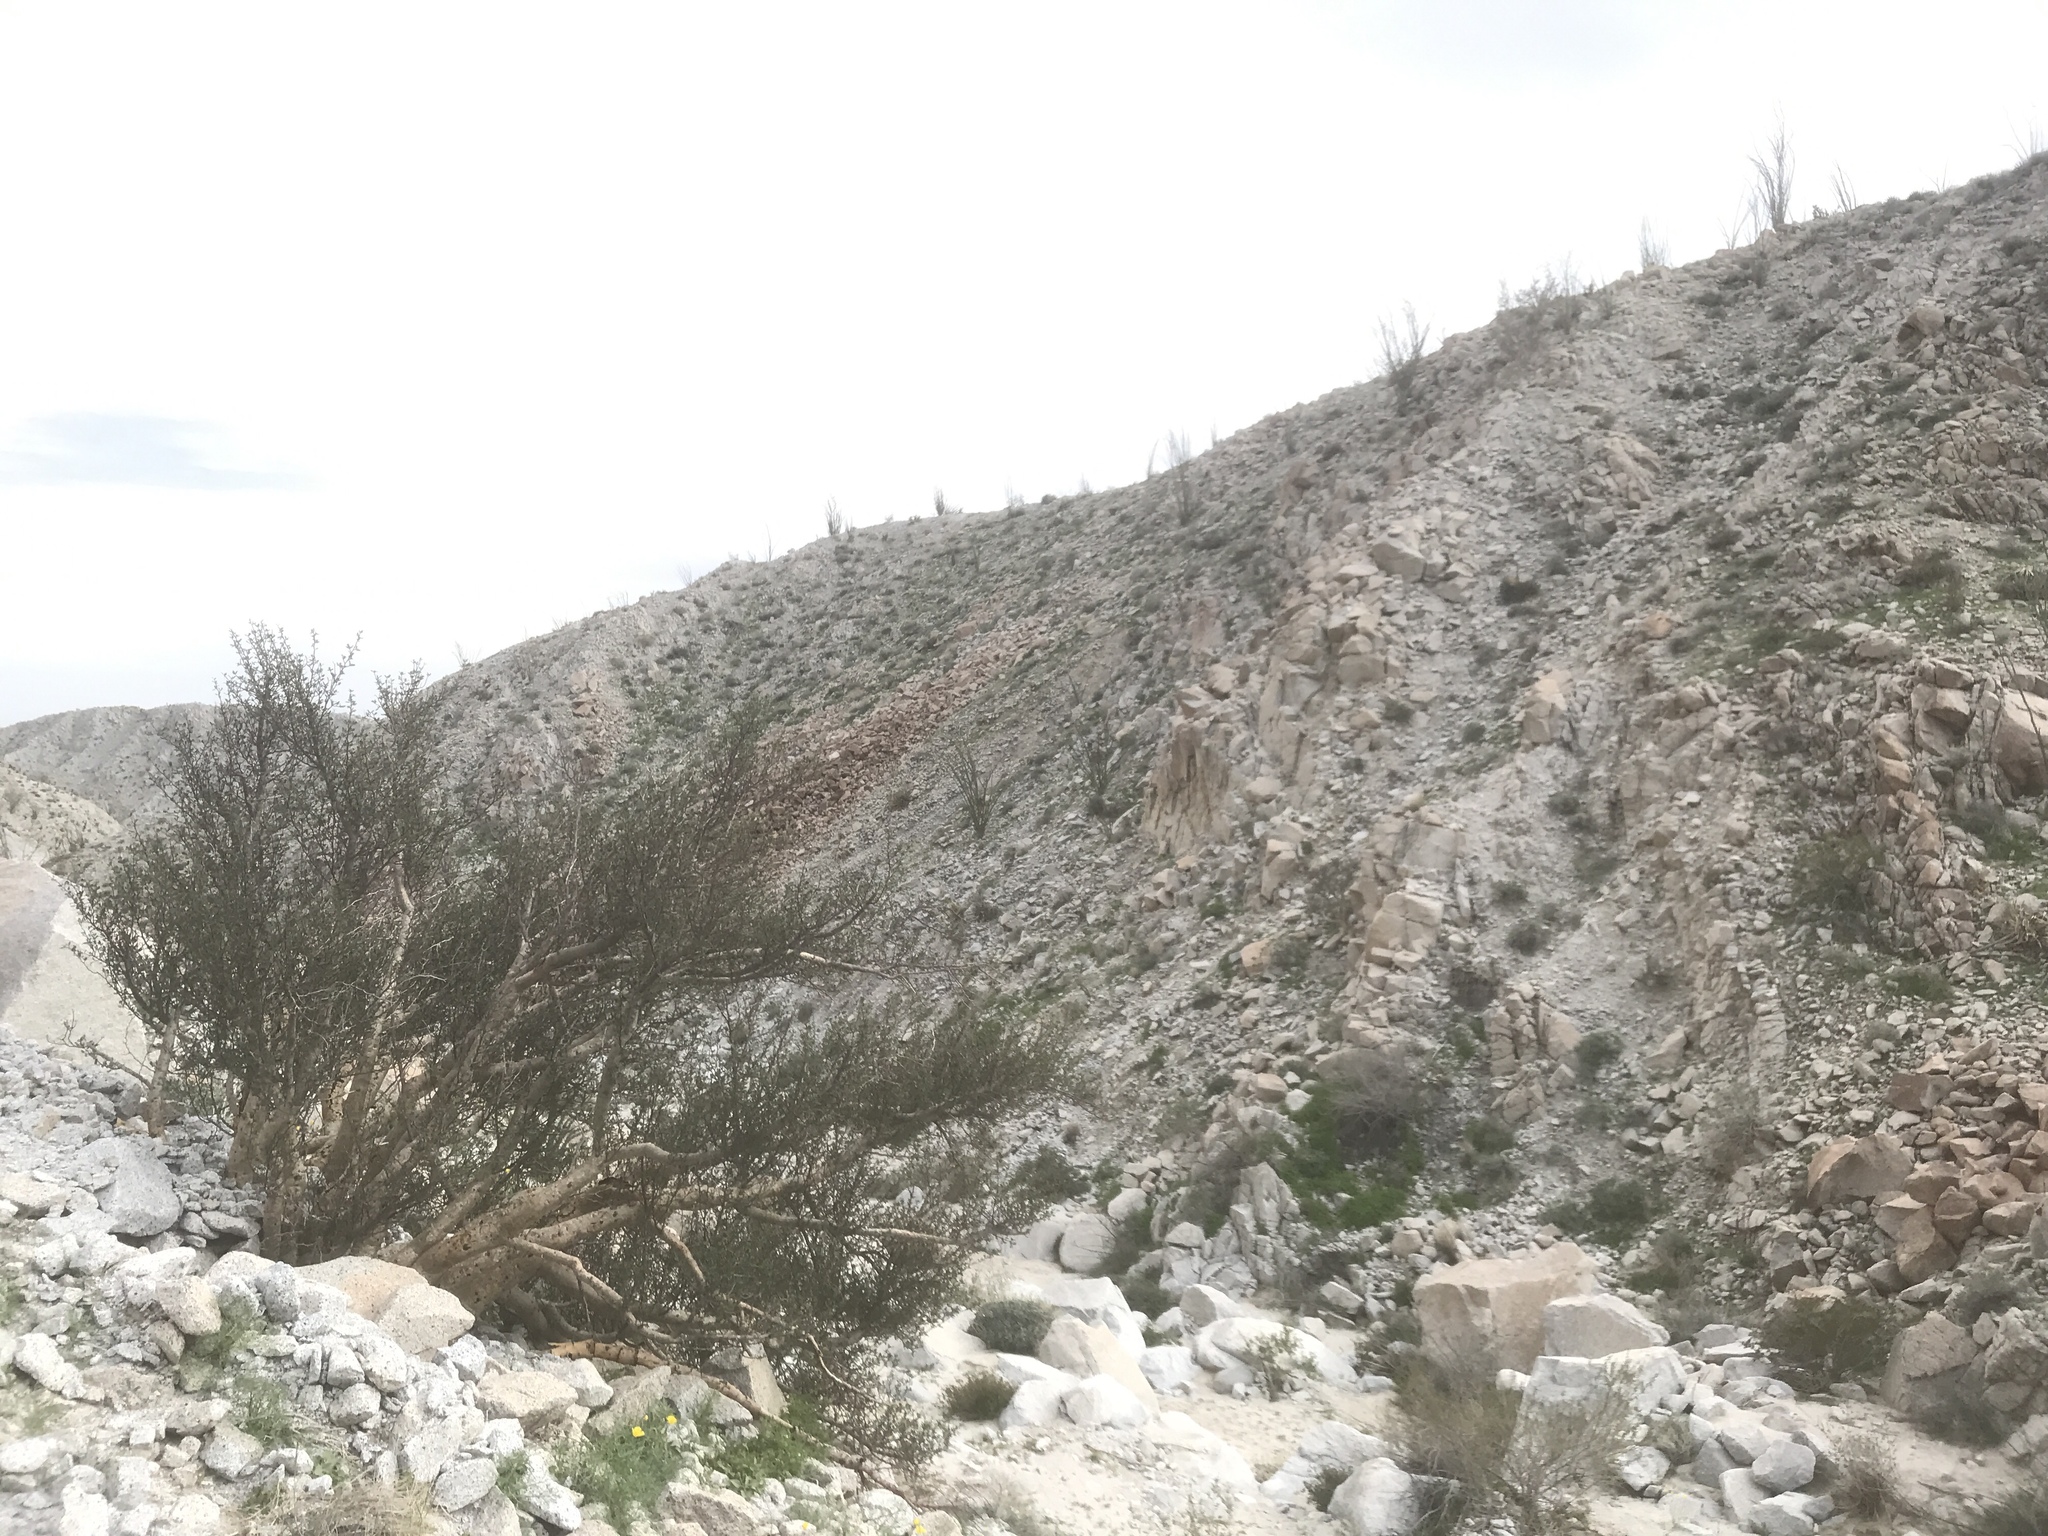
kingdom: Plantae
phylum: Tracheophyta
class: Magnoliopsida
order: Sapindales
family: Burseraceae
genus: Bursera
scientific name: Bursera microphylla
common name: Elephant tree
